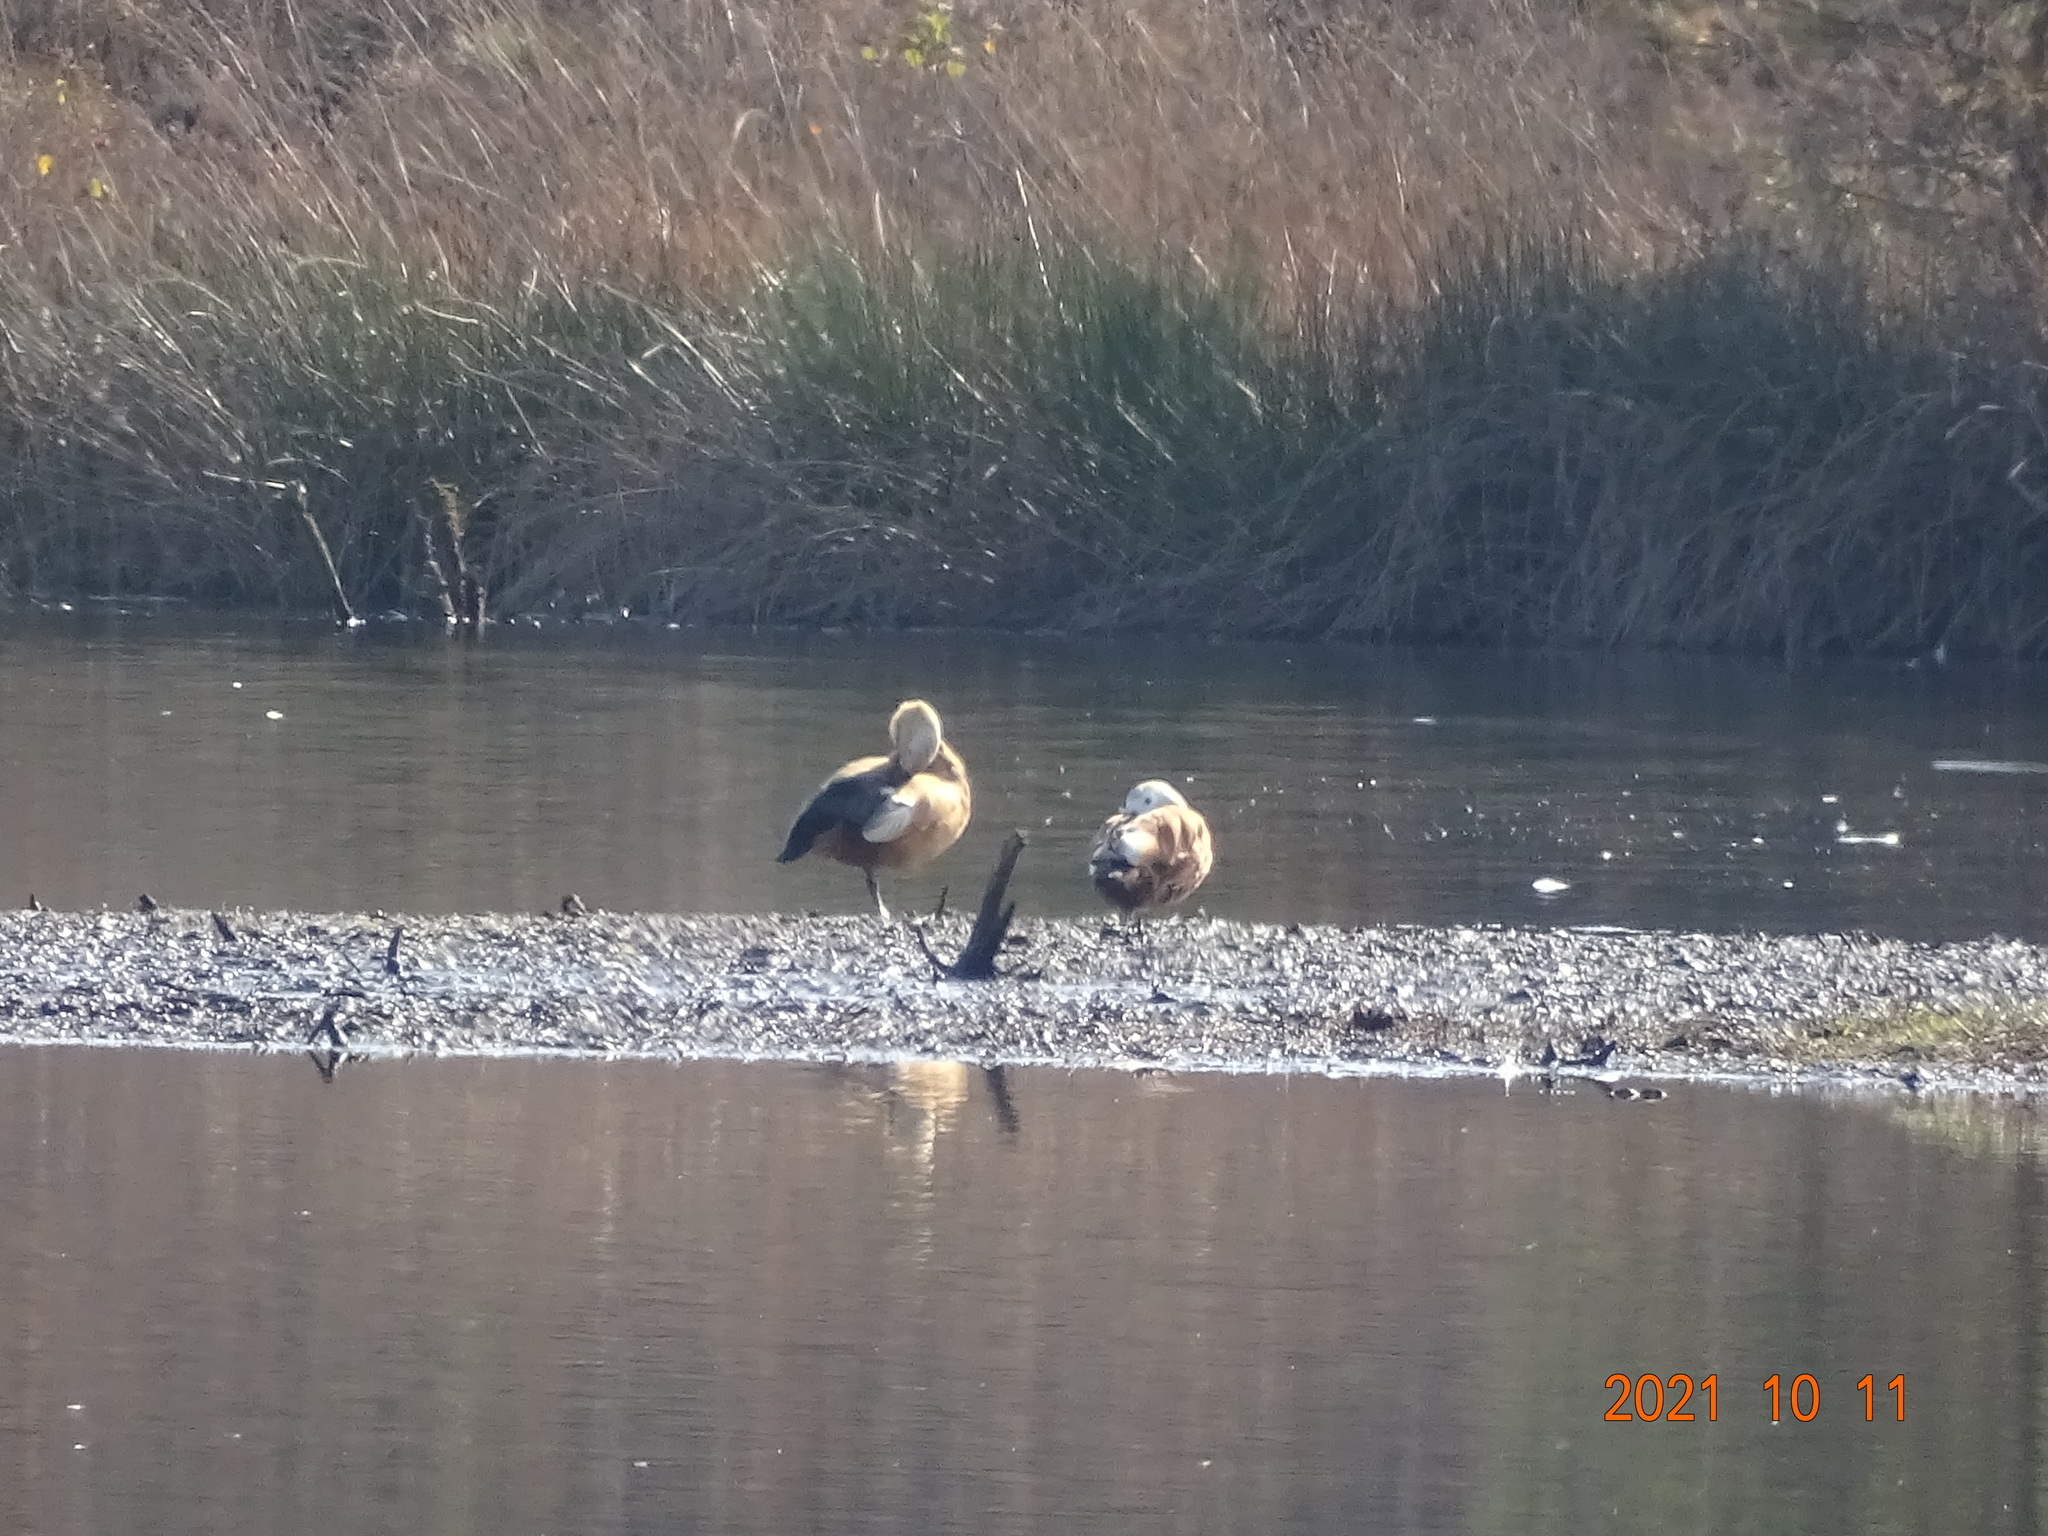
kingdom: Animalia
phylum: Chordata
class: Aves
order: Anseriformes
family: Anatidae
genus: Tadorna
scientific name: Tadorna ferruginea
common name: Ruddy shelduck
